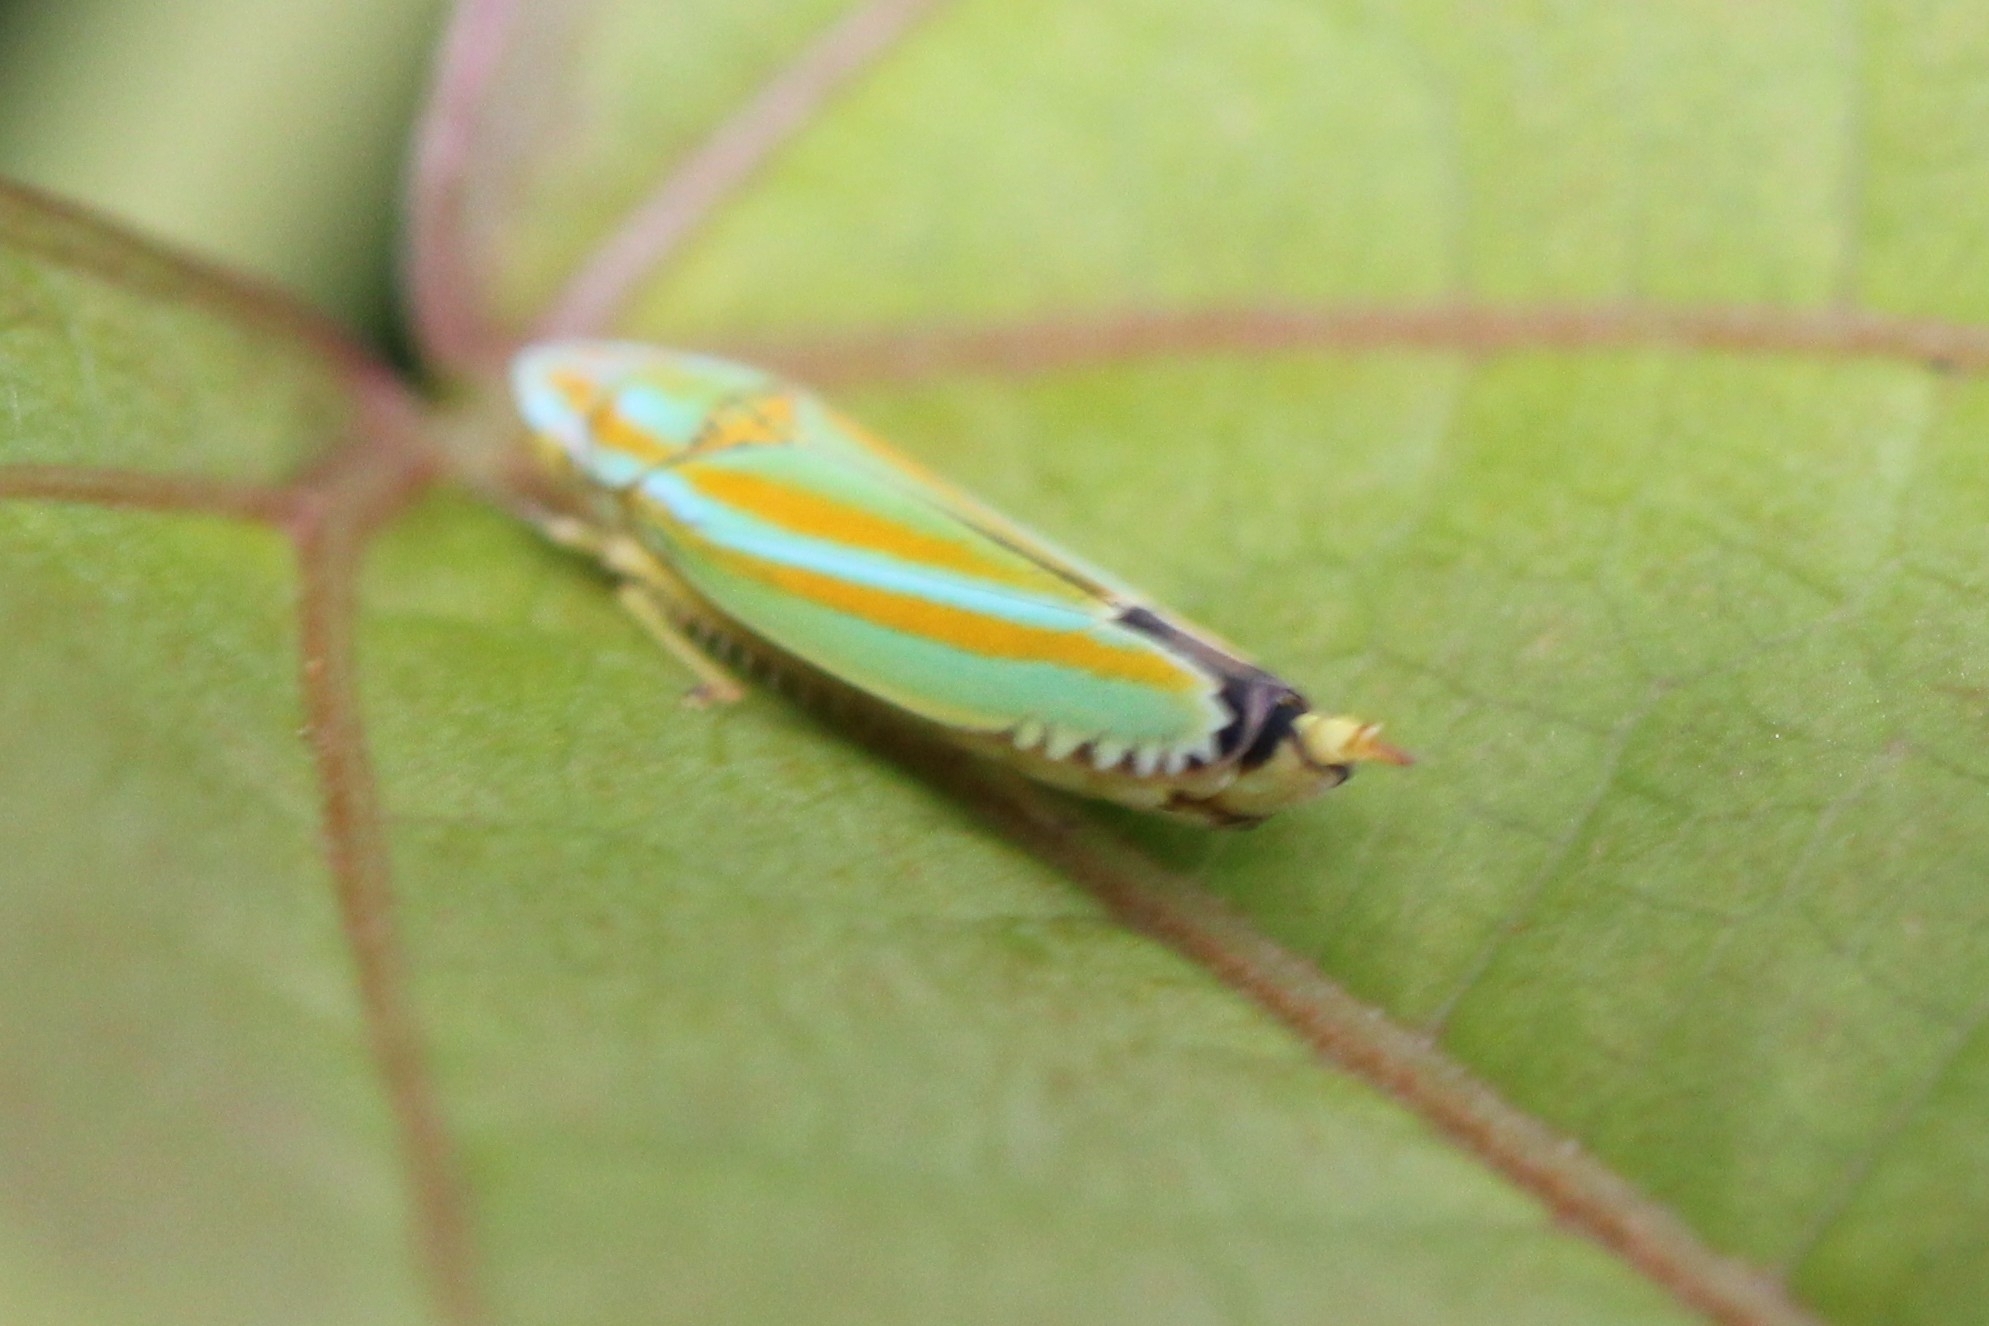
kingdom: Animalia
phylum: Arthropoda
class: Insecta
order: Hemiptera
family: Cicadellidae
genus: Graphocephala
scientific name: Graphocephala versuta
